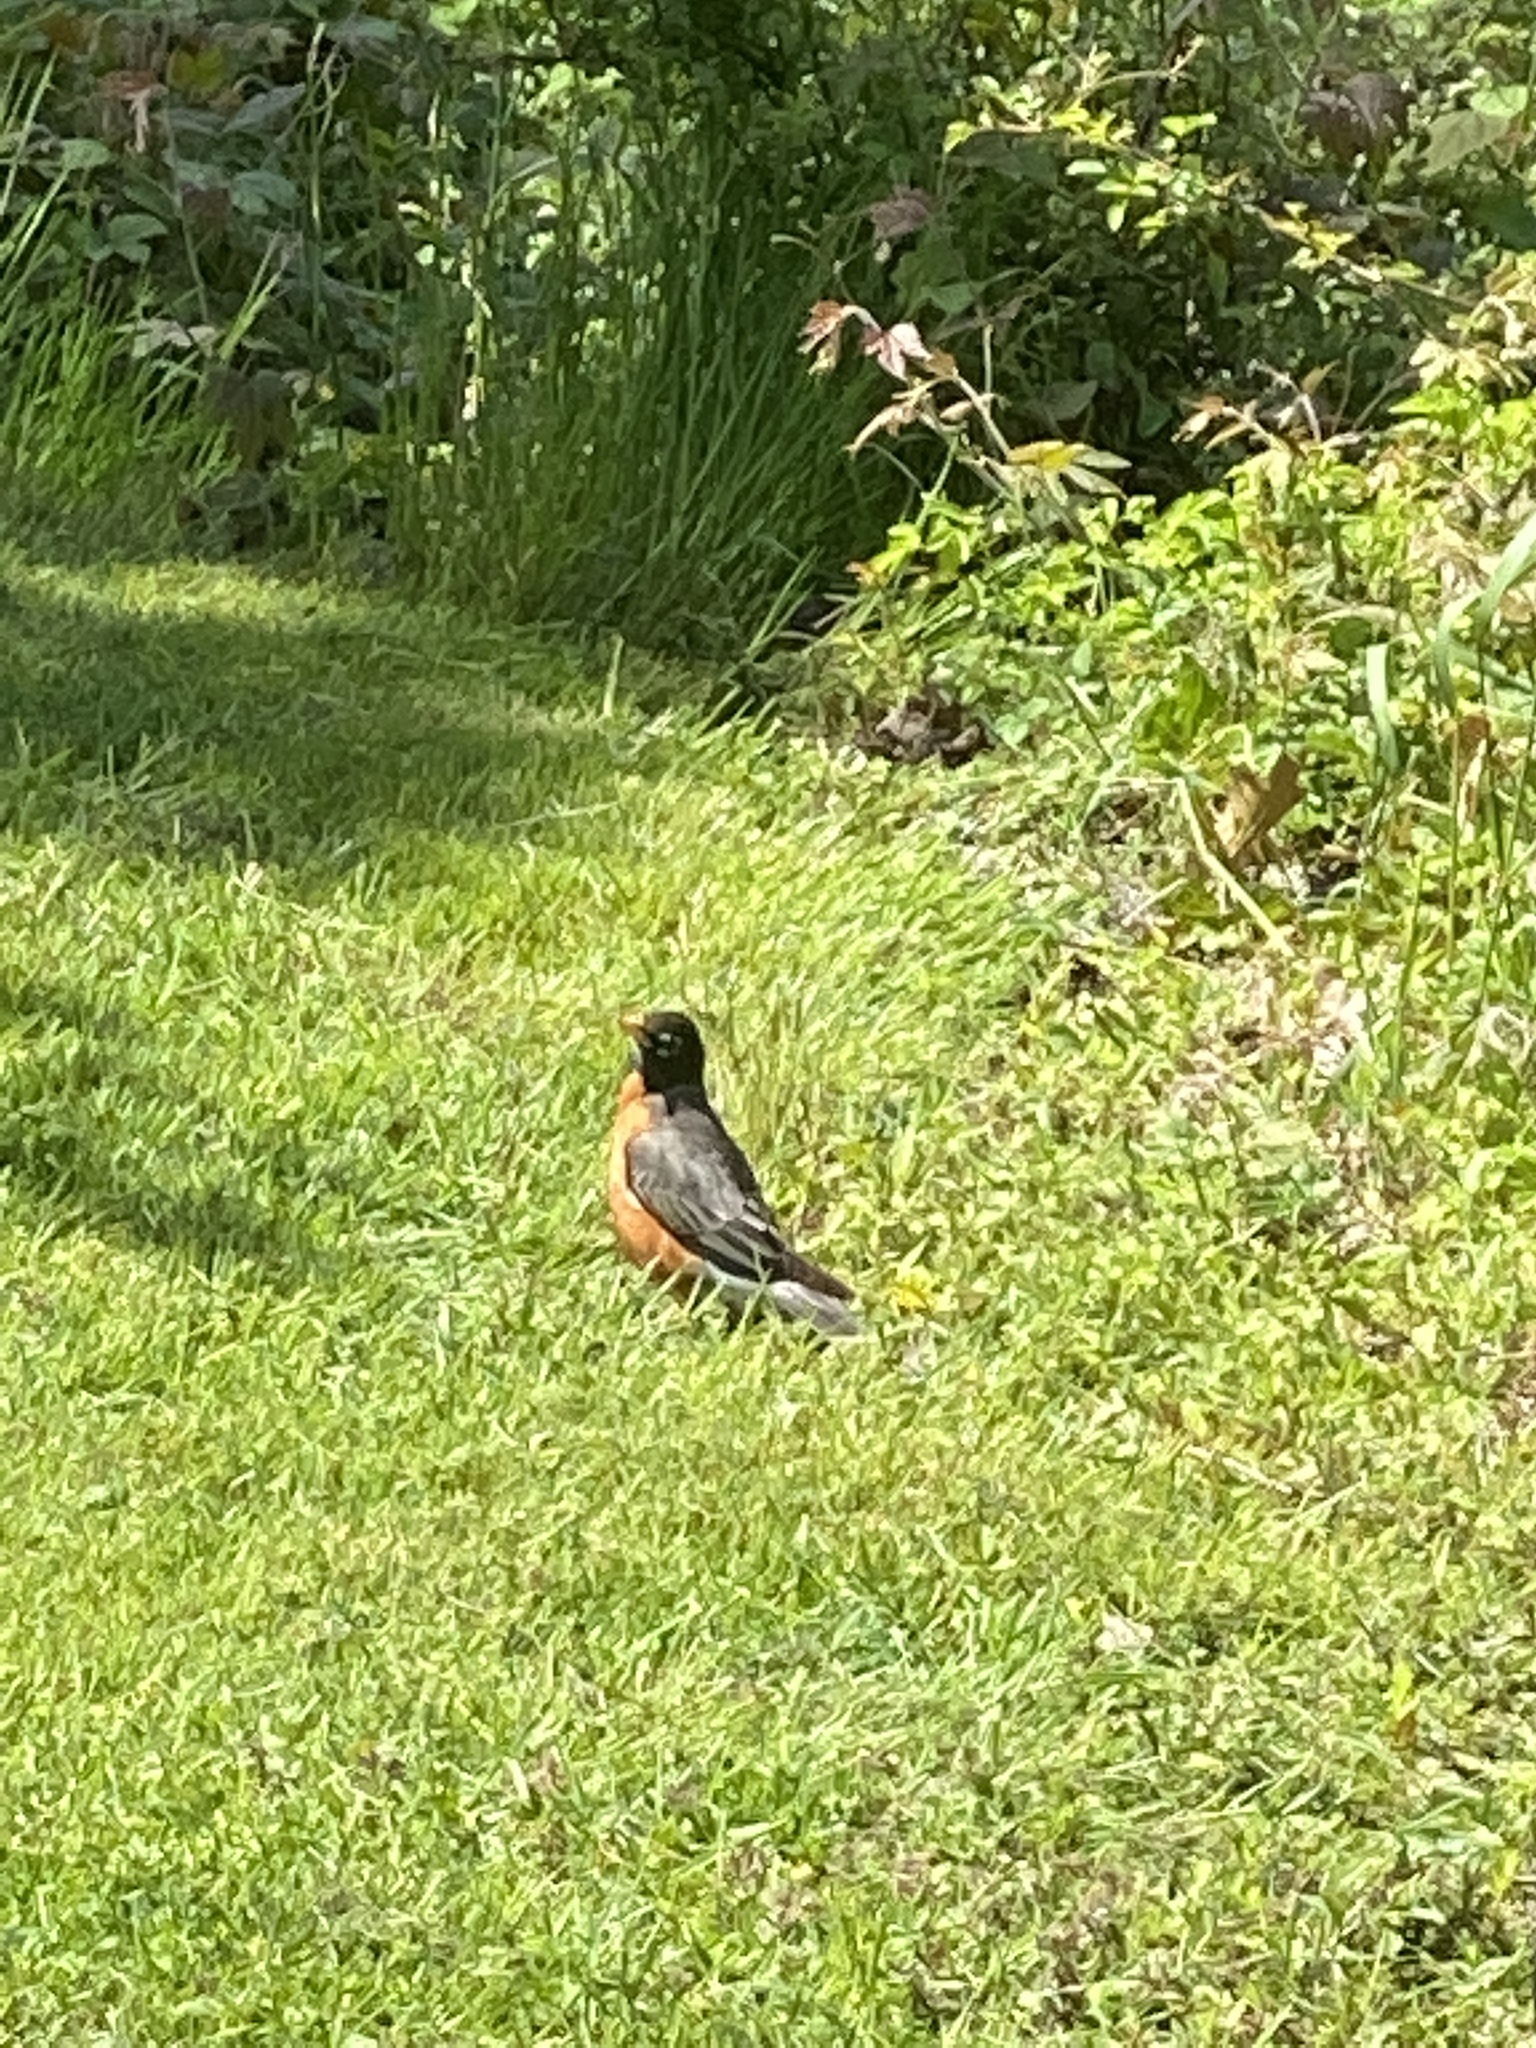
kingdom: Animalia
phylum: Chordata
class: Aves
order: Passeriformes
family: Turdidae
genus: Turdus
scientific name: Turdus migratorius
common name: American robin
